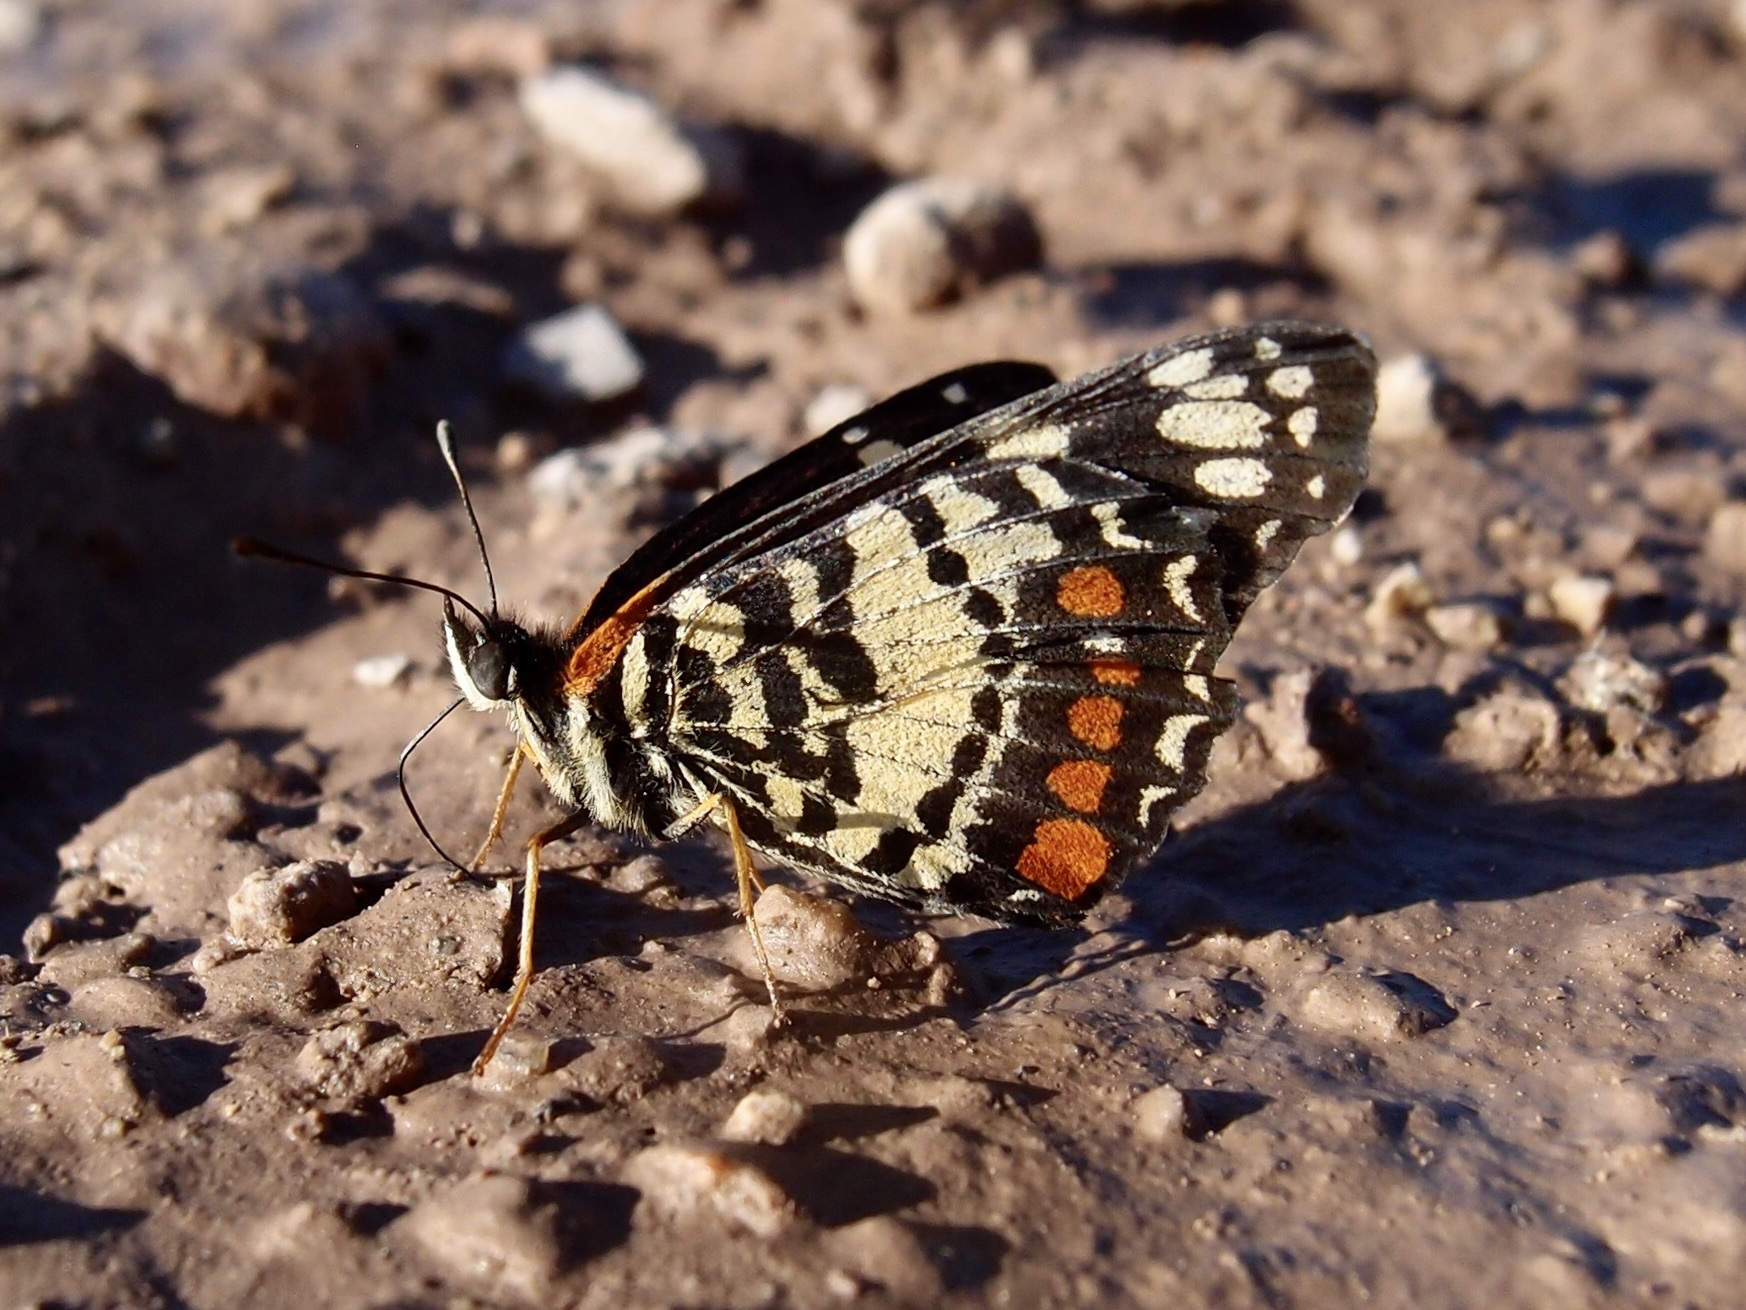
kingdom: Animalia
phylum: Arthropoda
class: Insecta
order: Lepidoptera
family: Nymphalidae
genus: Chlosyne
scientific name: Chlosyne eumeda
